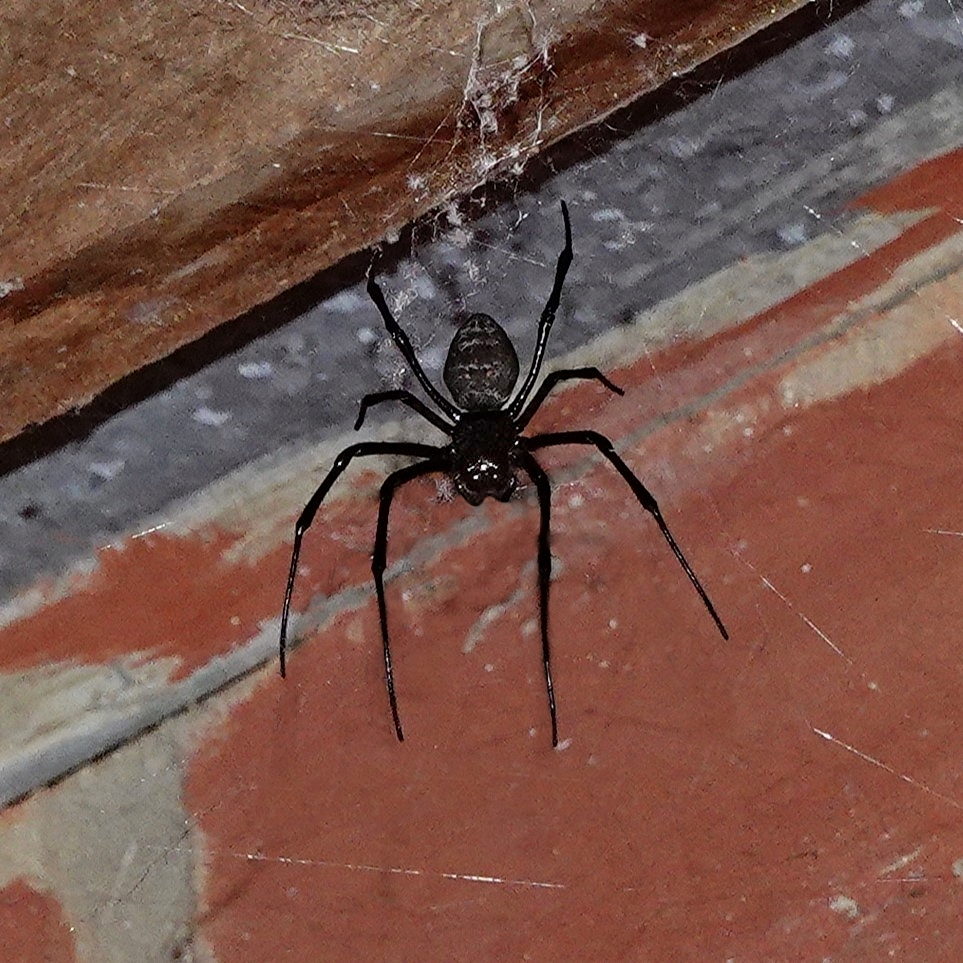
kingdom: Animalia
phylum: Arthropoda
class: Arachnida
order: Araneae
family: Araneidae
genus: Nephilingis
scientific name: Nephilingis livida
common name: Madagascar hermit spider
